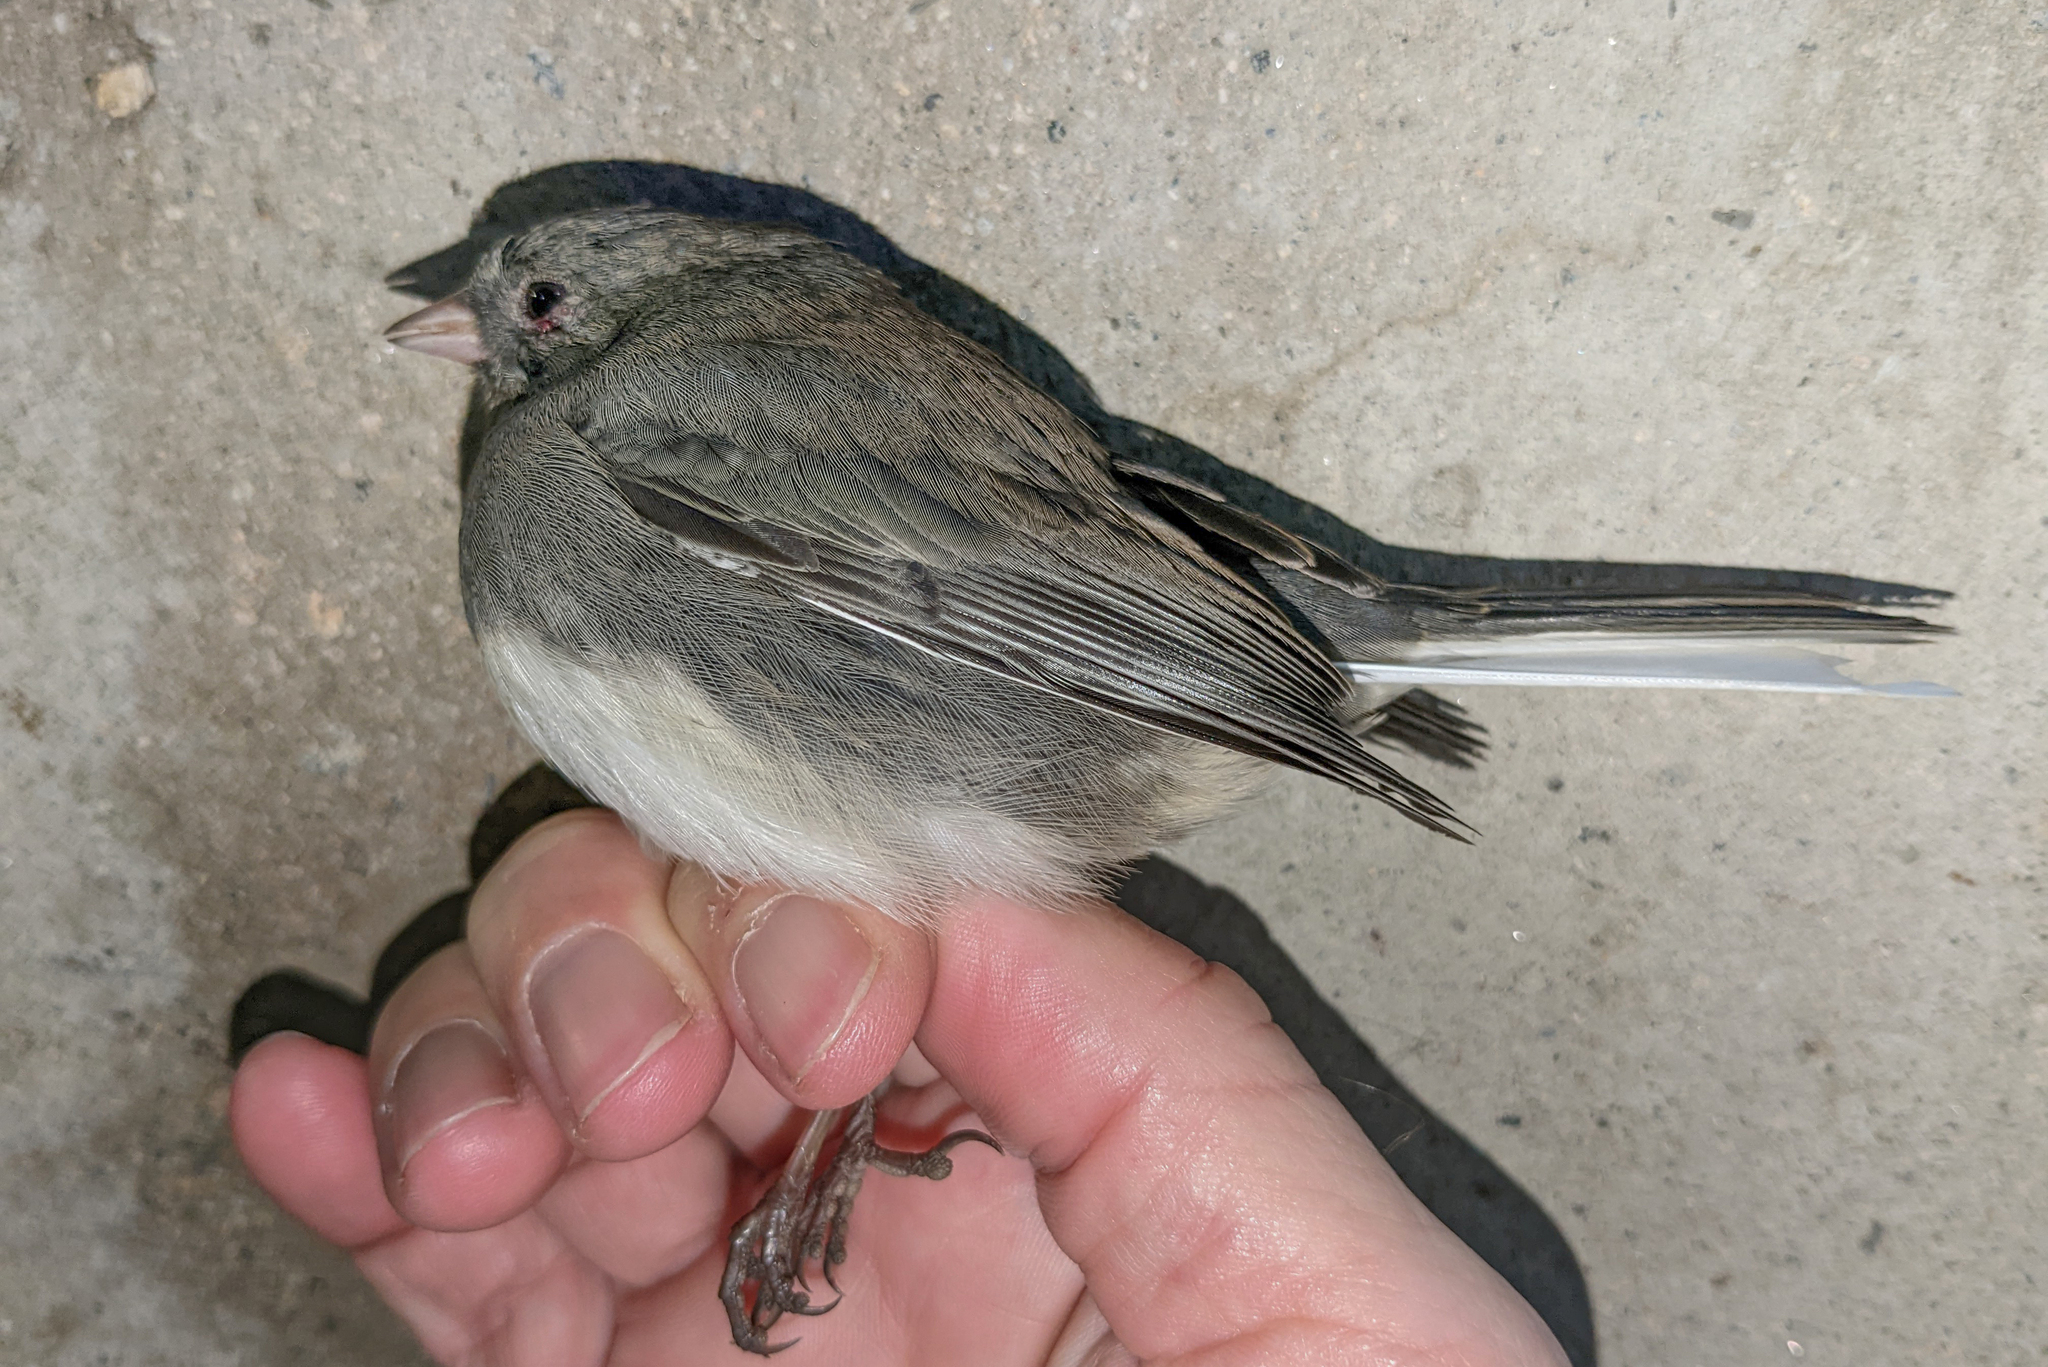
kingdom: Animalia
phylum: Chordata
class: Aves
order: Passeriformes
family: Passerellidae
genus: Junco
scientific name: Junco hyemalis
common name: Dark-eyed junco
